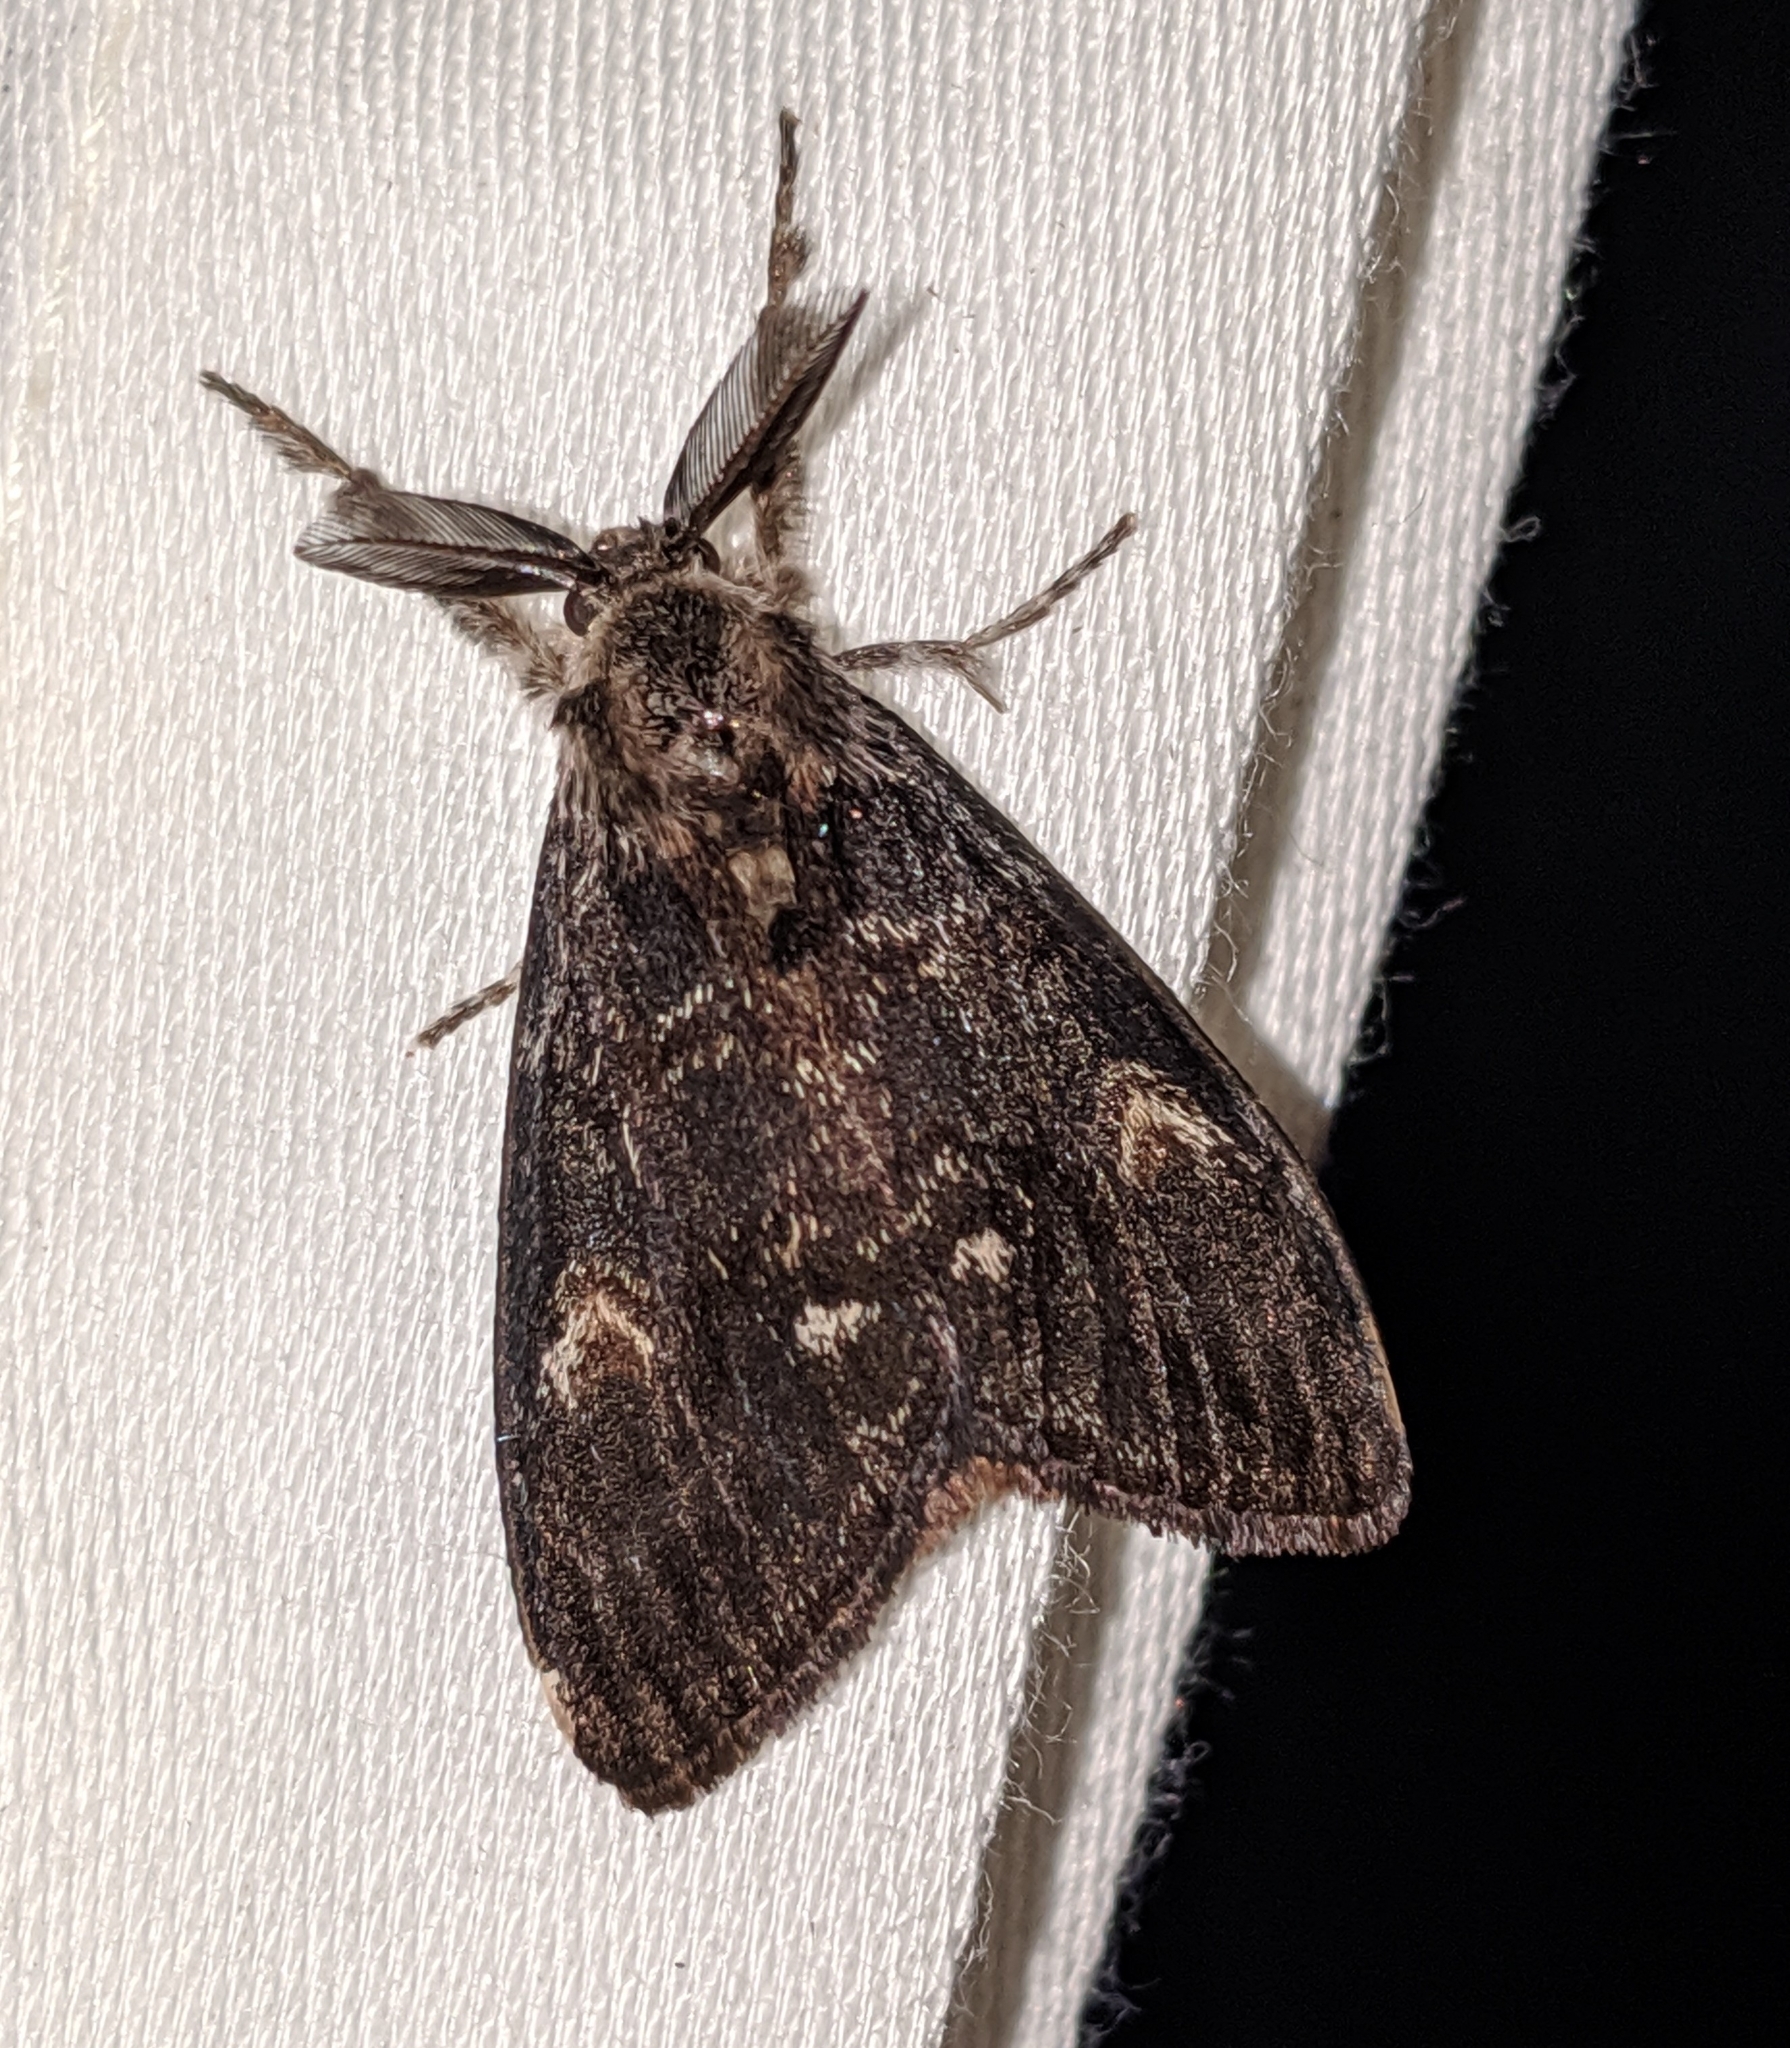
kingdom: Animalia
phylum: Arthropoda
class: Insecta
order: Lepidoptera
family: Erebidae
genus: Orgyia
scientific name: Orgyia pseudotsugata
